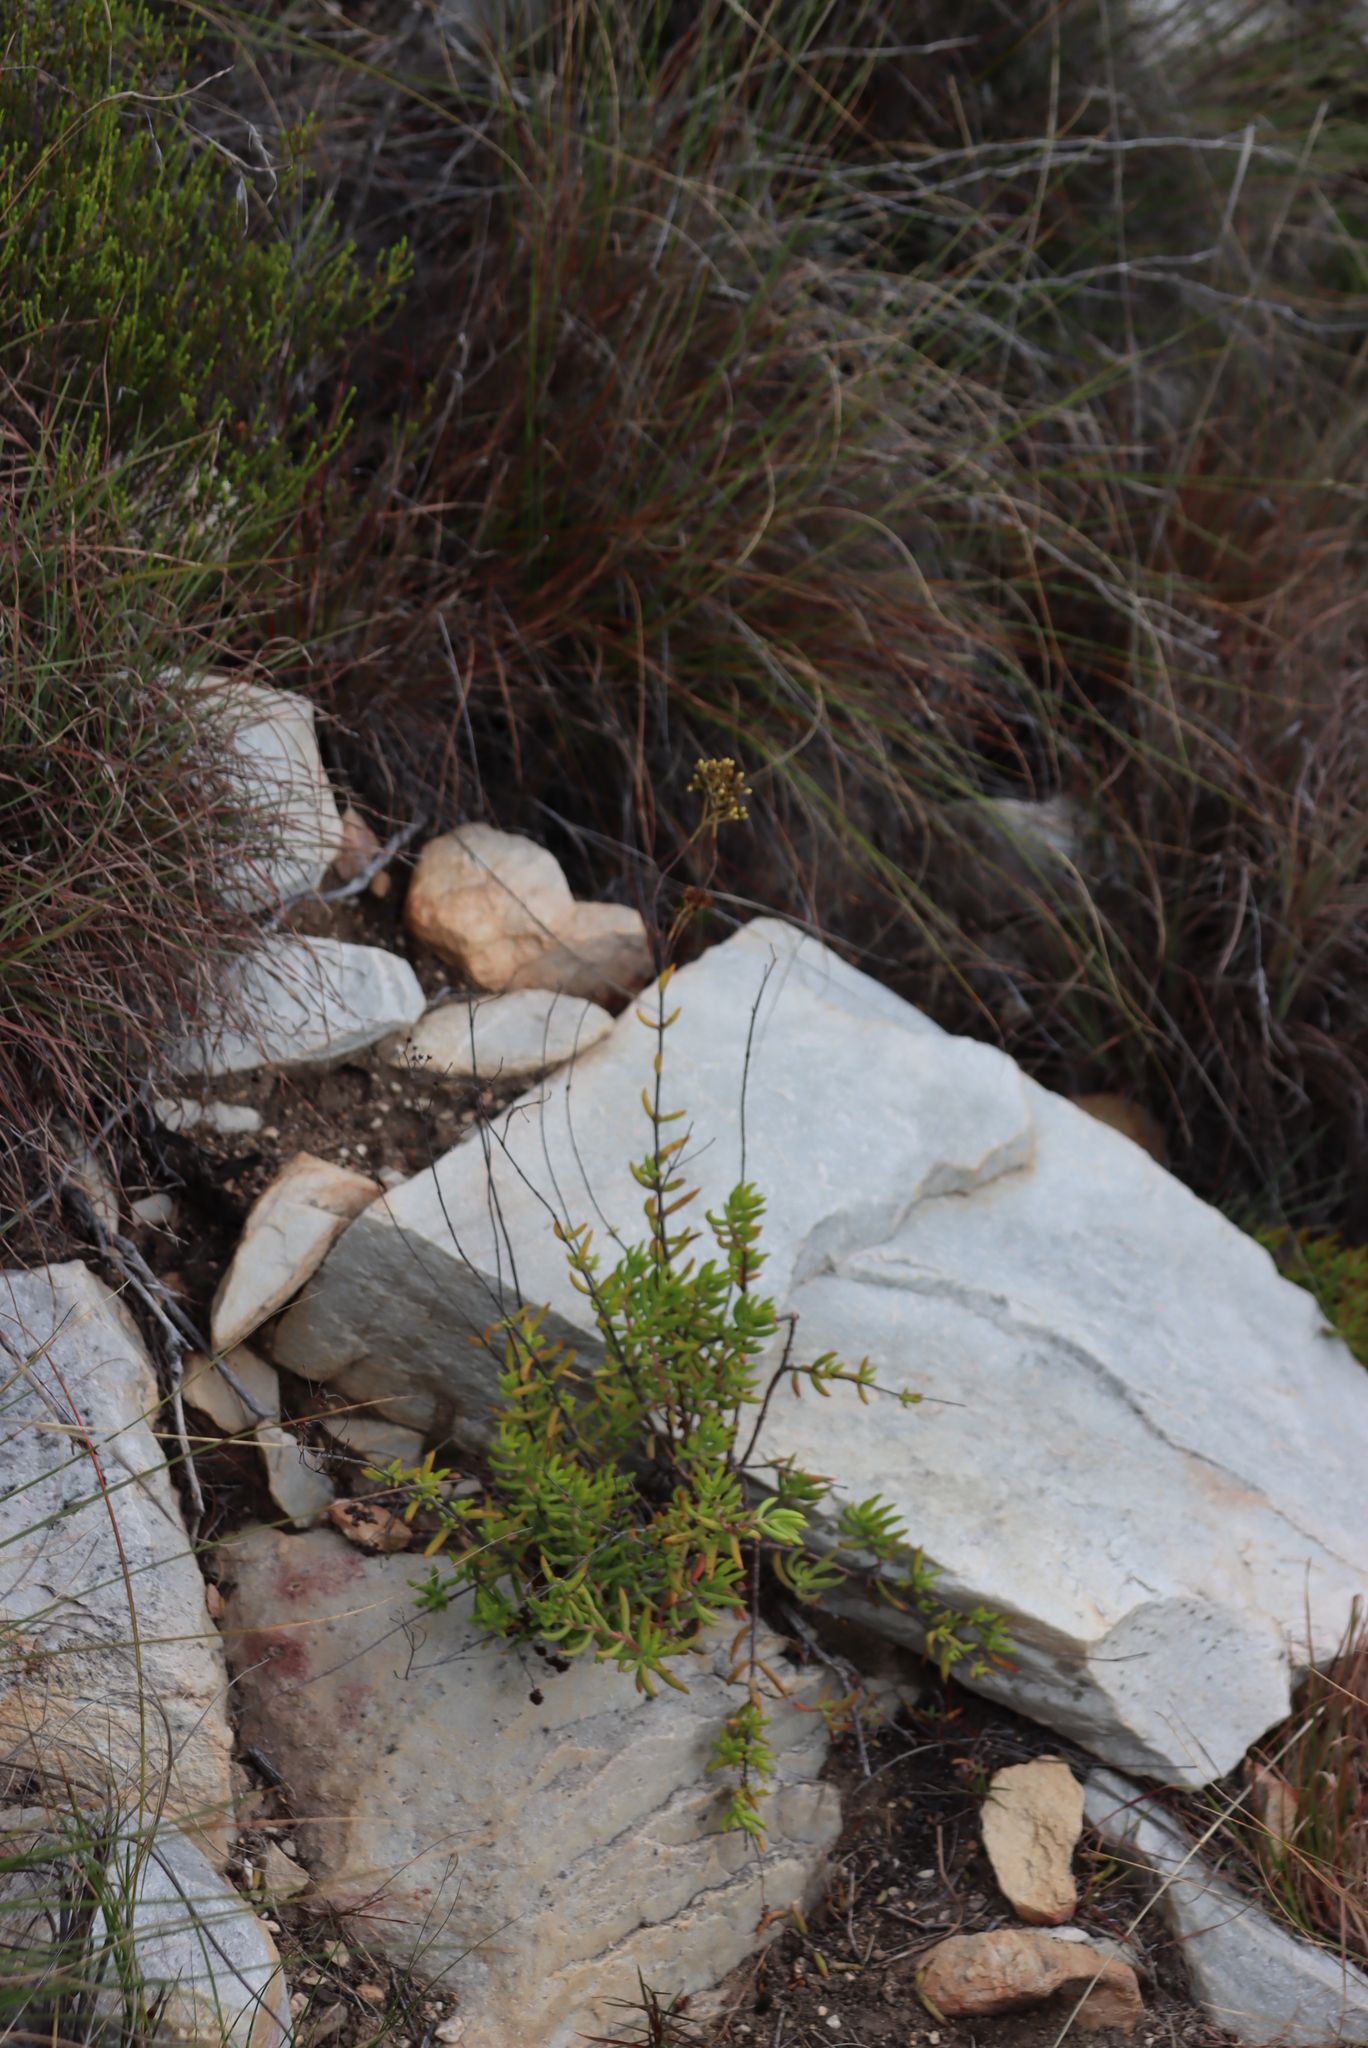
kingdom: Plantae
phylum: Tracheophyta
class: Magnoliopsida
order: Saxifragales
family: Crassulaceae
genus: Crassula
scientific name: Crassula mollis
